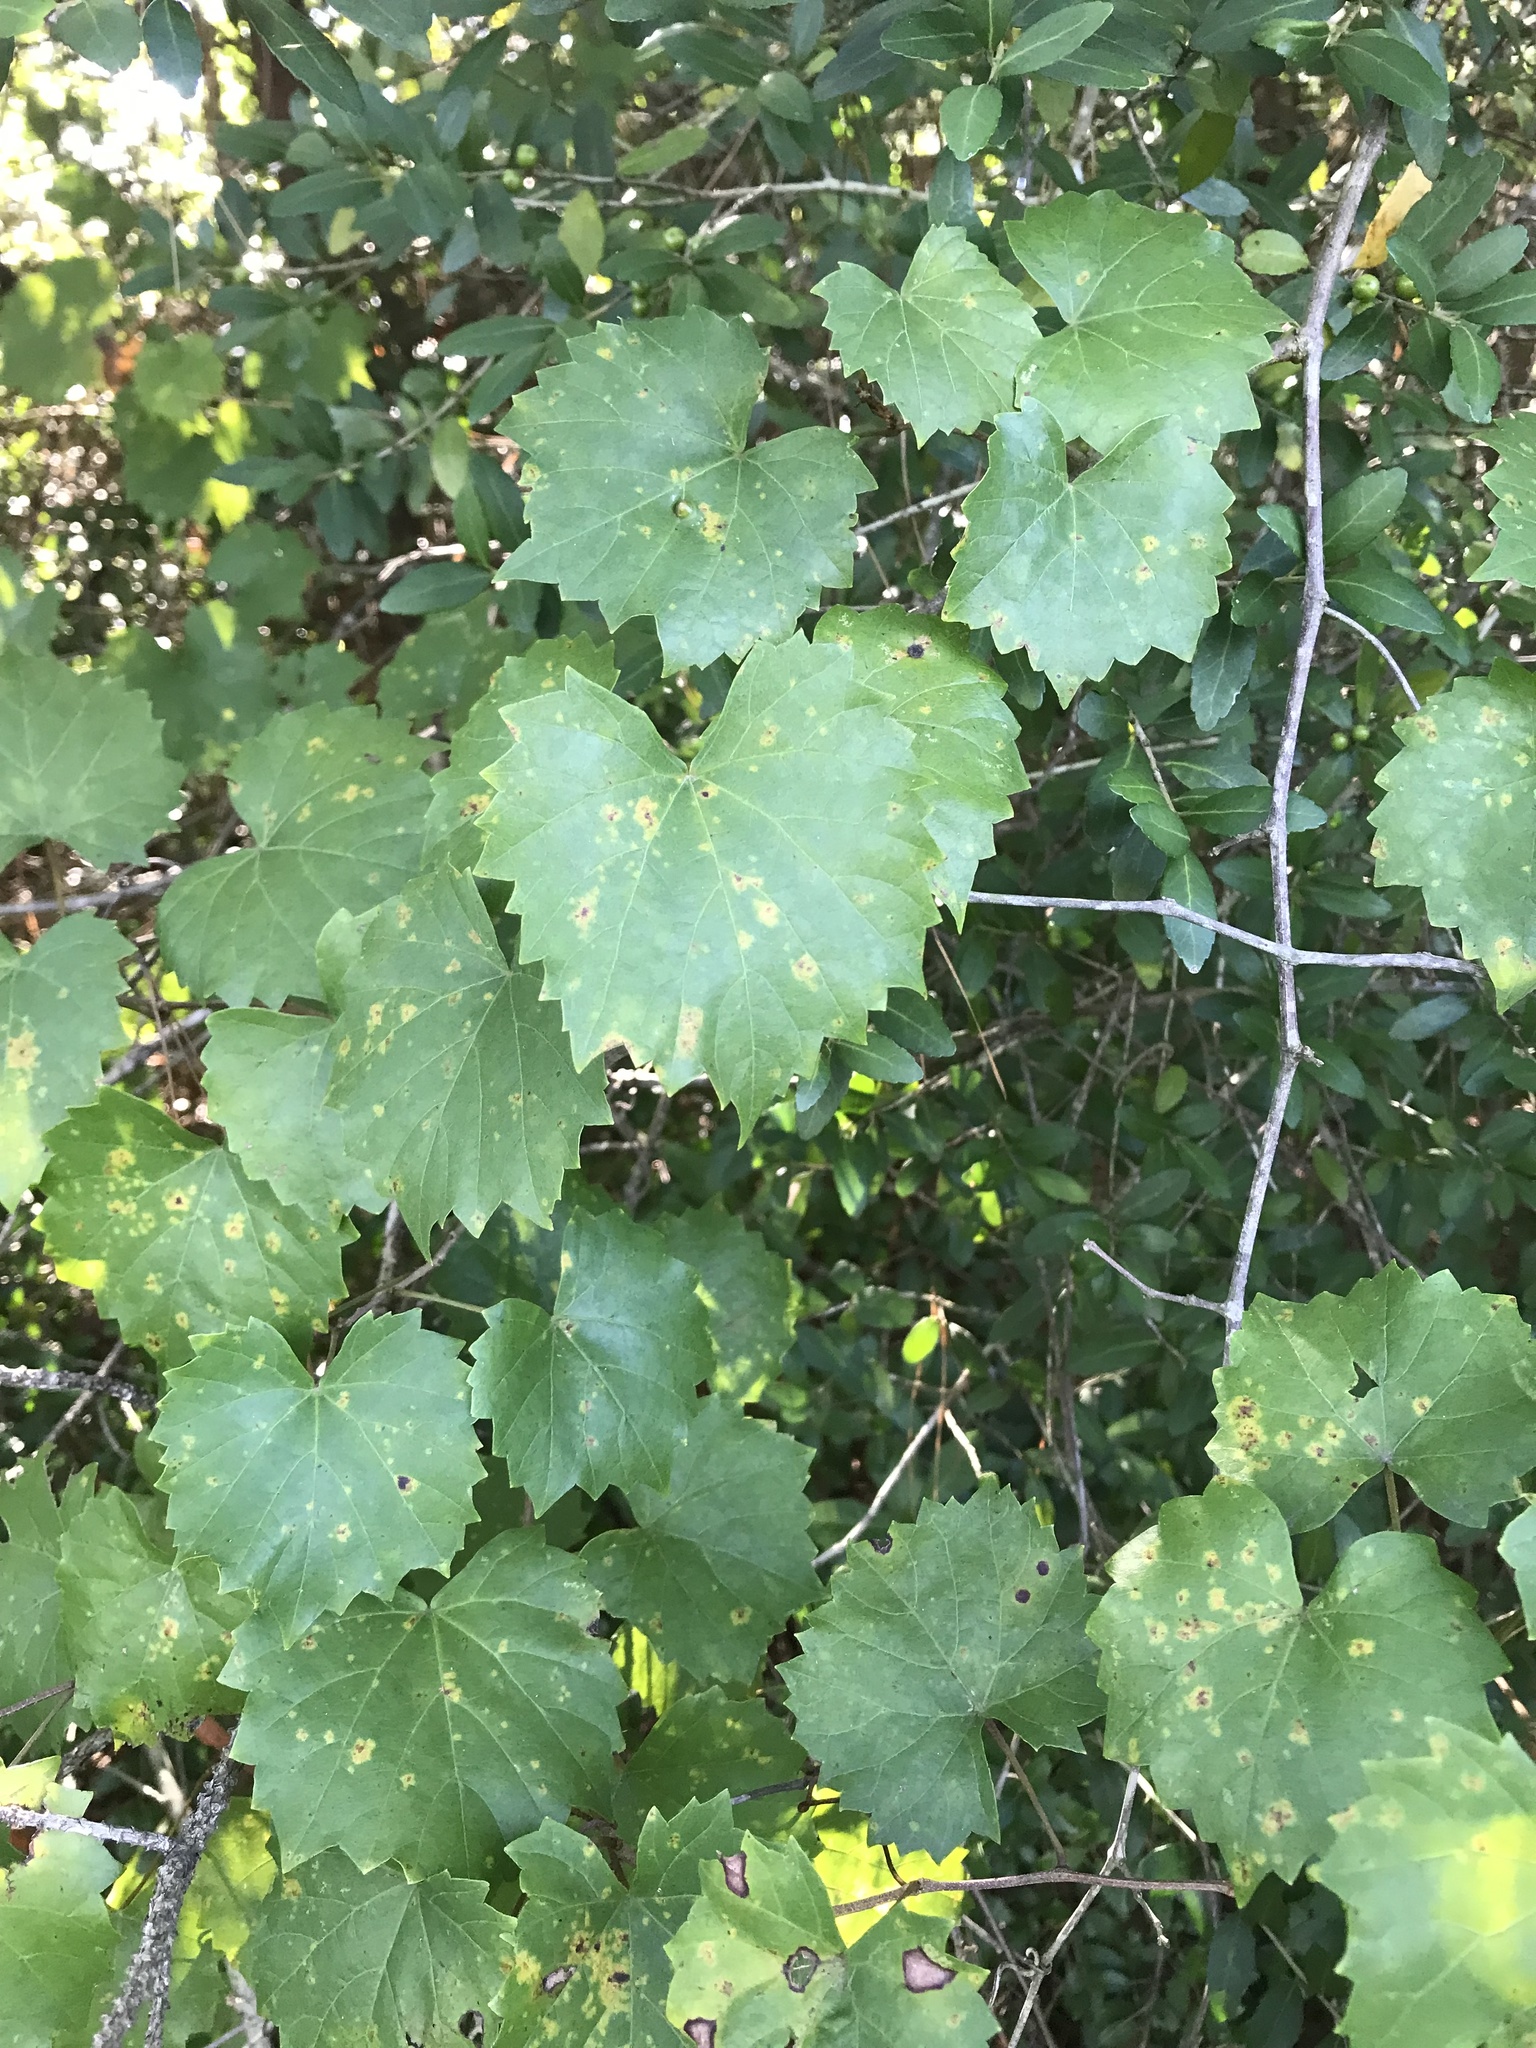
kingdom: Plantae
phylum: Tracheophyta
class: Magnoliopsida
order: Vitales
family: Vitaceae
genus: Vitis
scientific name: Vitis rotundifolia
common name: Muscadine grape
